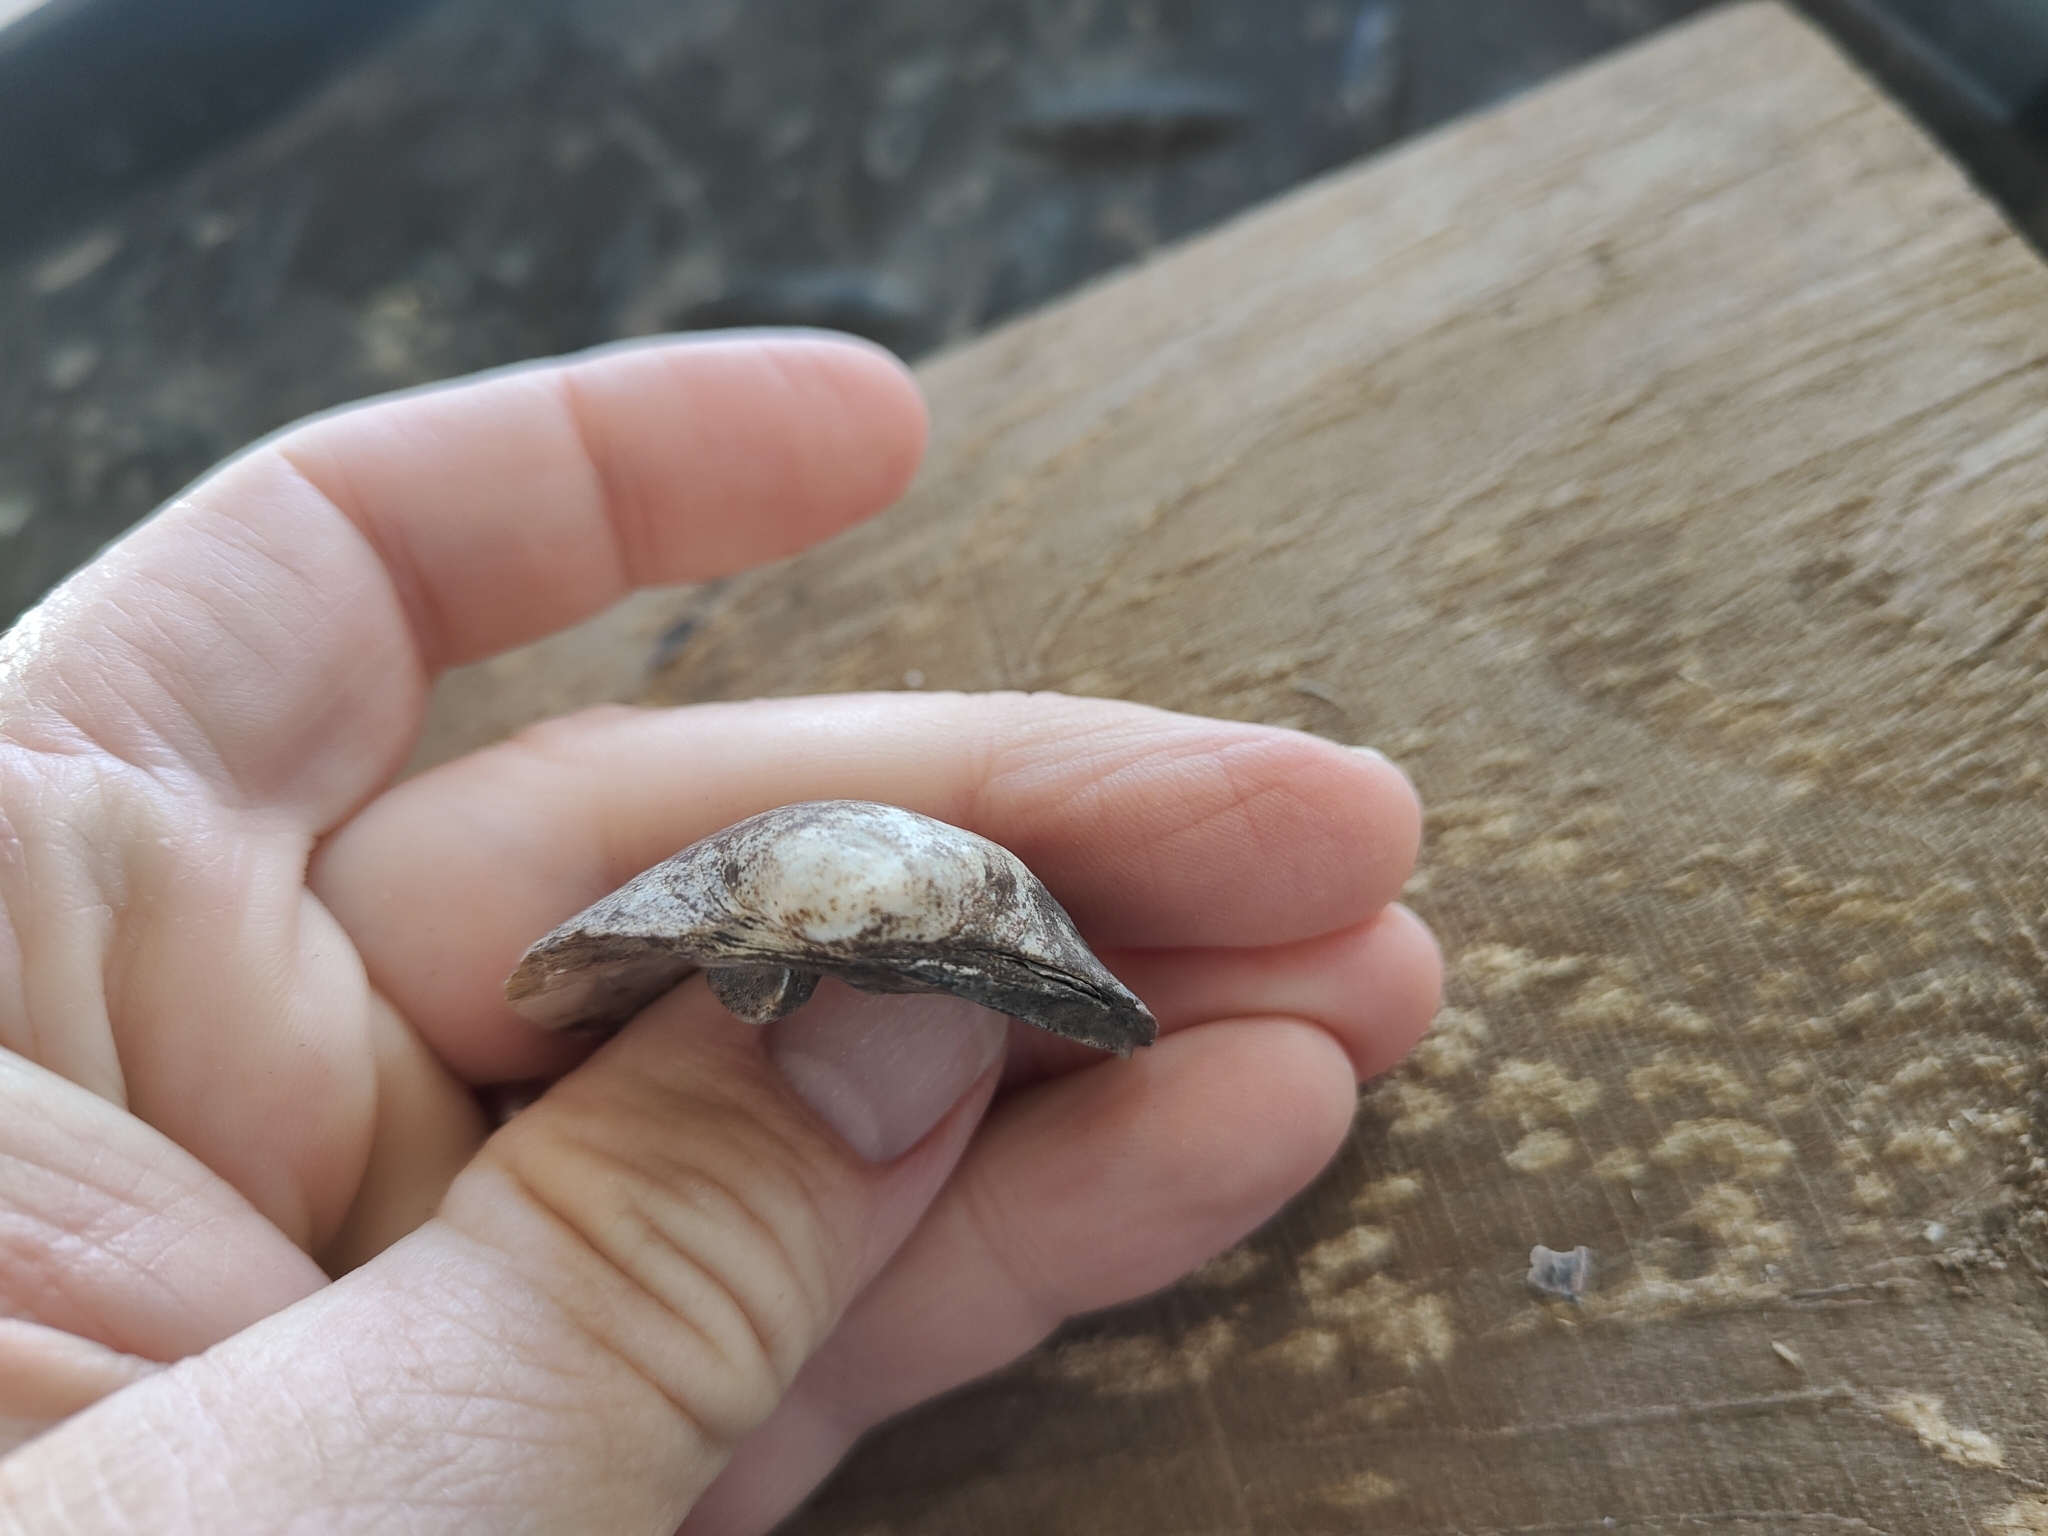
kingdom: Animalia
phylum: Mollusca
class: Bivalvia
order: Unionida
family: Unionidae
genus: Cyclonaias
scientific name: Cyclonaias pustulosa
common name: Pimpleback
